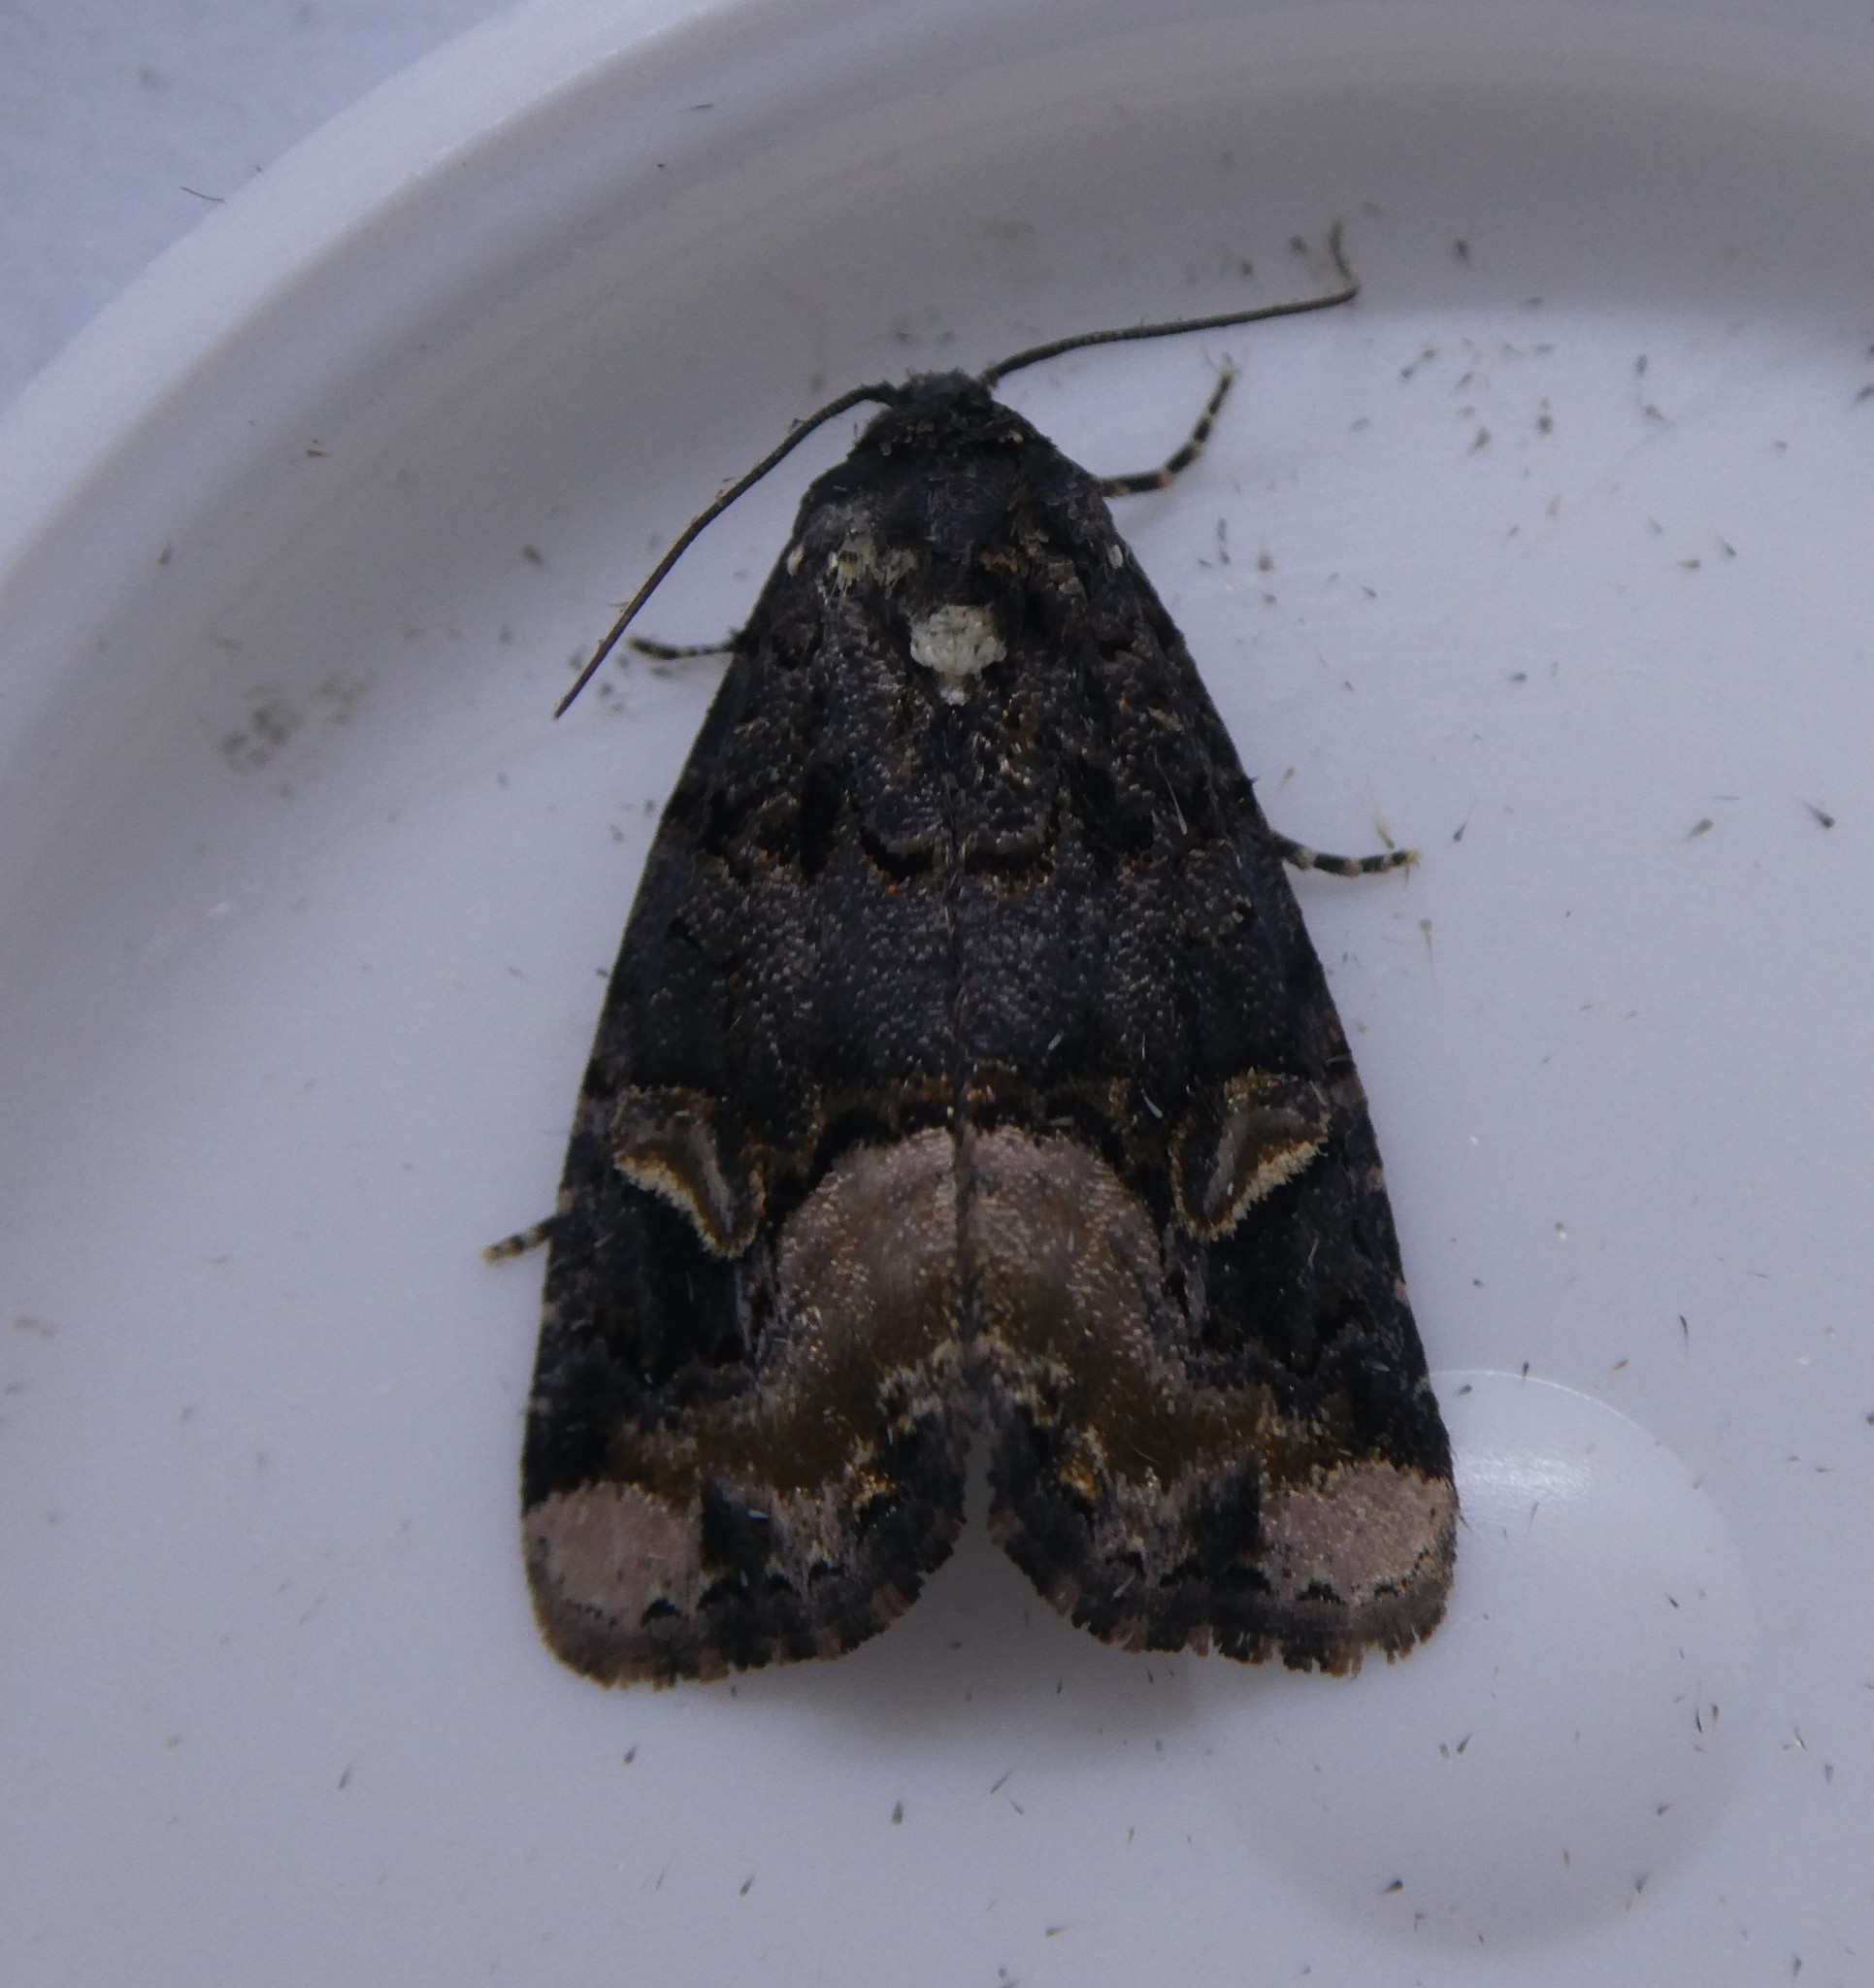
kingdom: Animalia
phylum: Arthropoda
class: Insecta
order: Lepidoptera
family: Noctuidae
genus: Homophoberia
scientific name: Homophoberia apicosa
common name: Black wedge-spot
